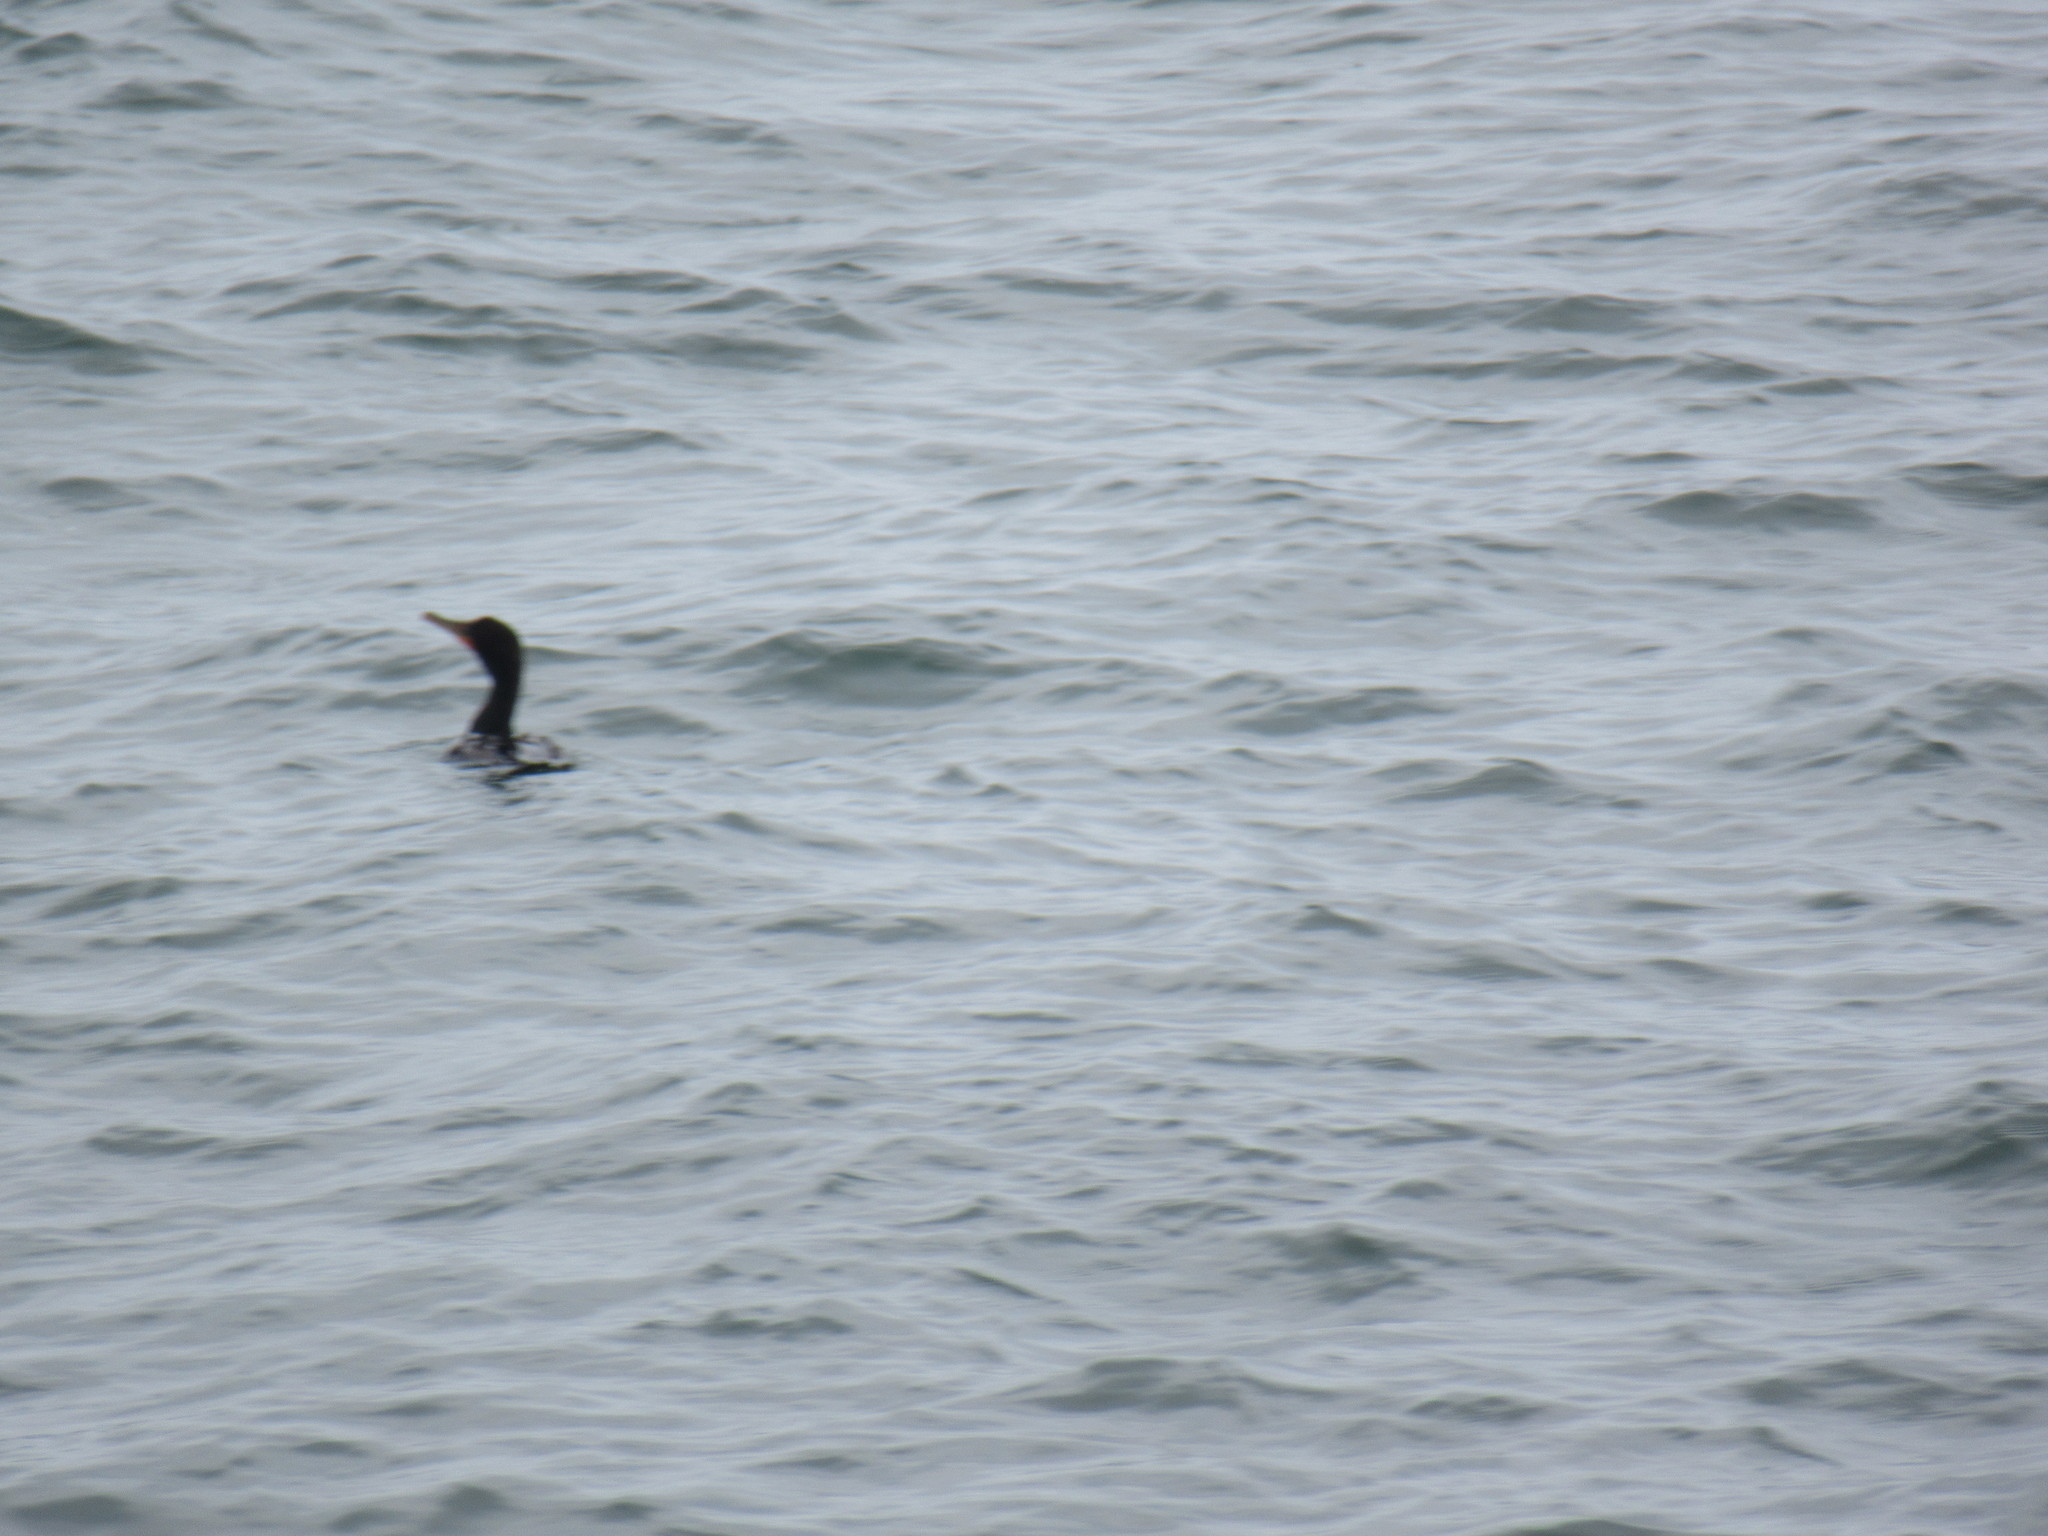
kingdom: Animalia
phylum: Chordata
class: Aves
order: Suliformes
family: Phalacrocoracidae
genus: Phalacrocorax
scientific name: Phalacrocorax auritus
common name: Double-crested cormorant
